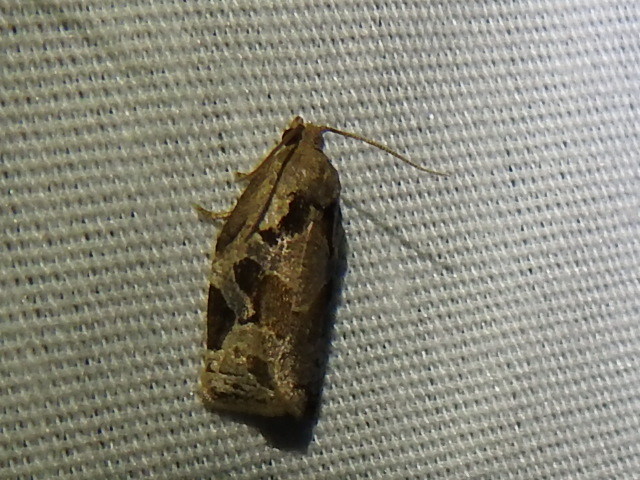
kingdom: Animalia
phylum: Arthropoda
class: Insecta
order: Lepidoptera
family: Tortricidae
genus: Archips
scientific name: Archips grisea
